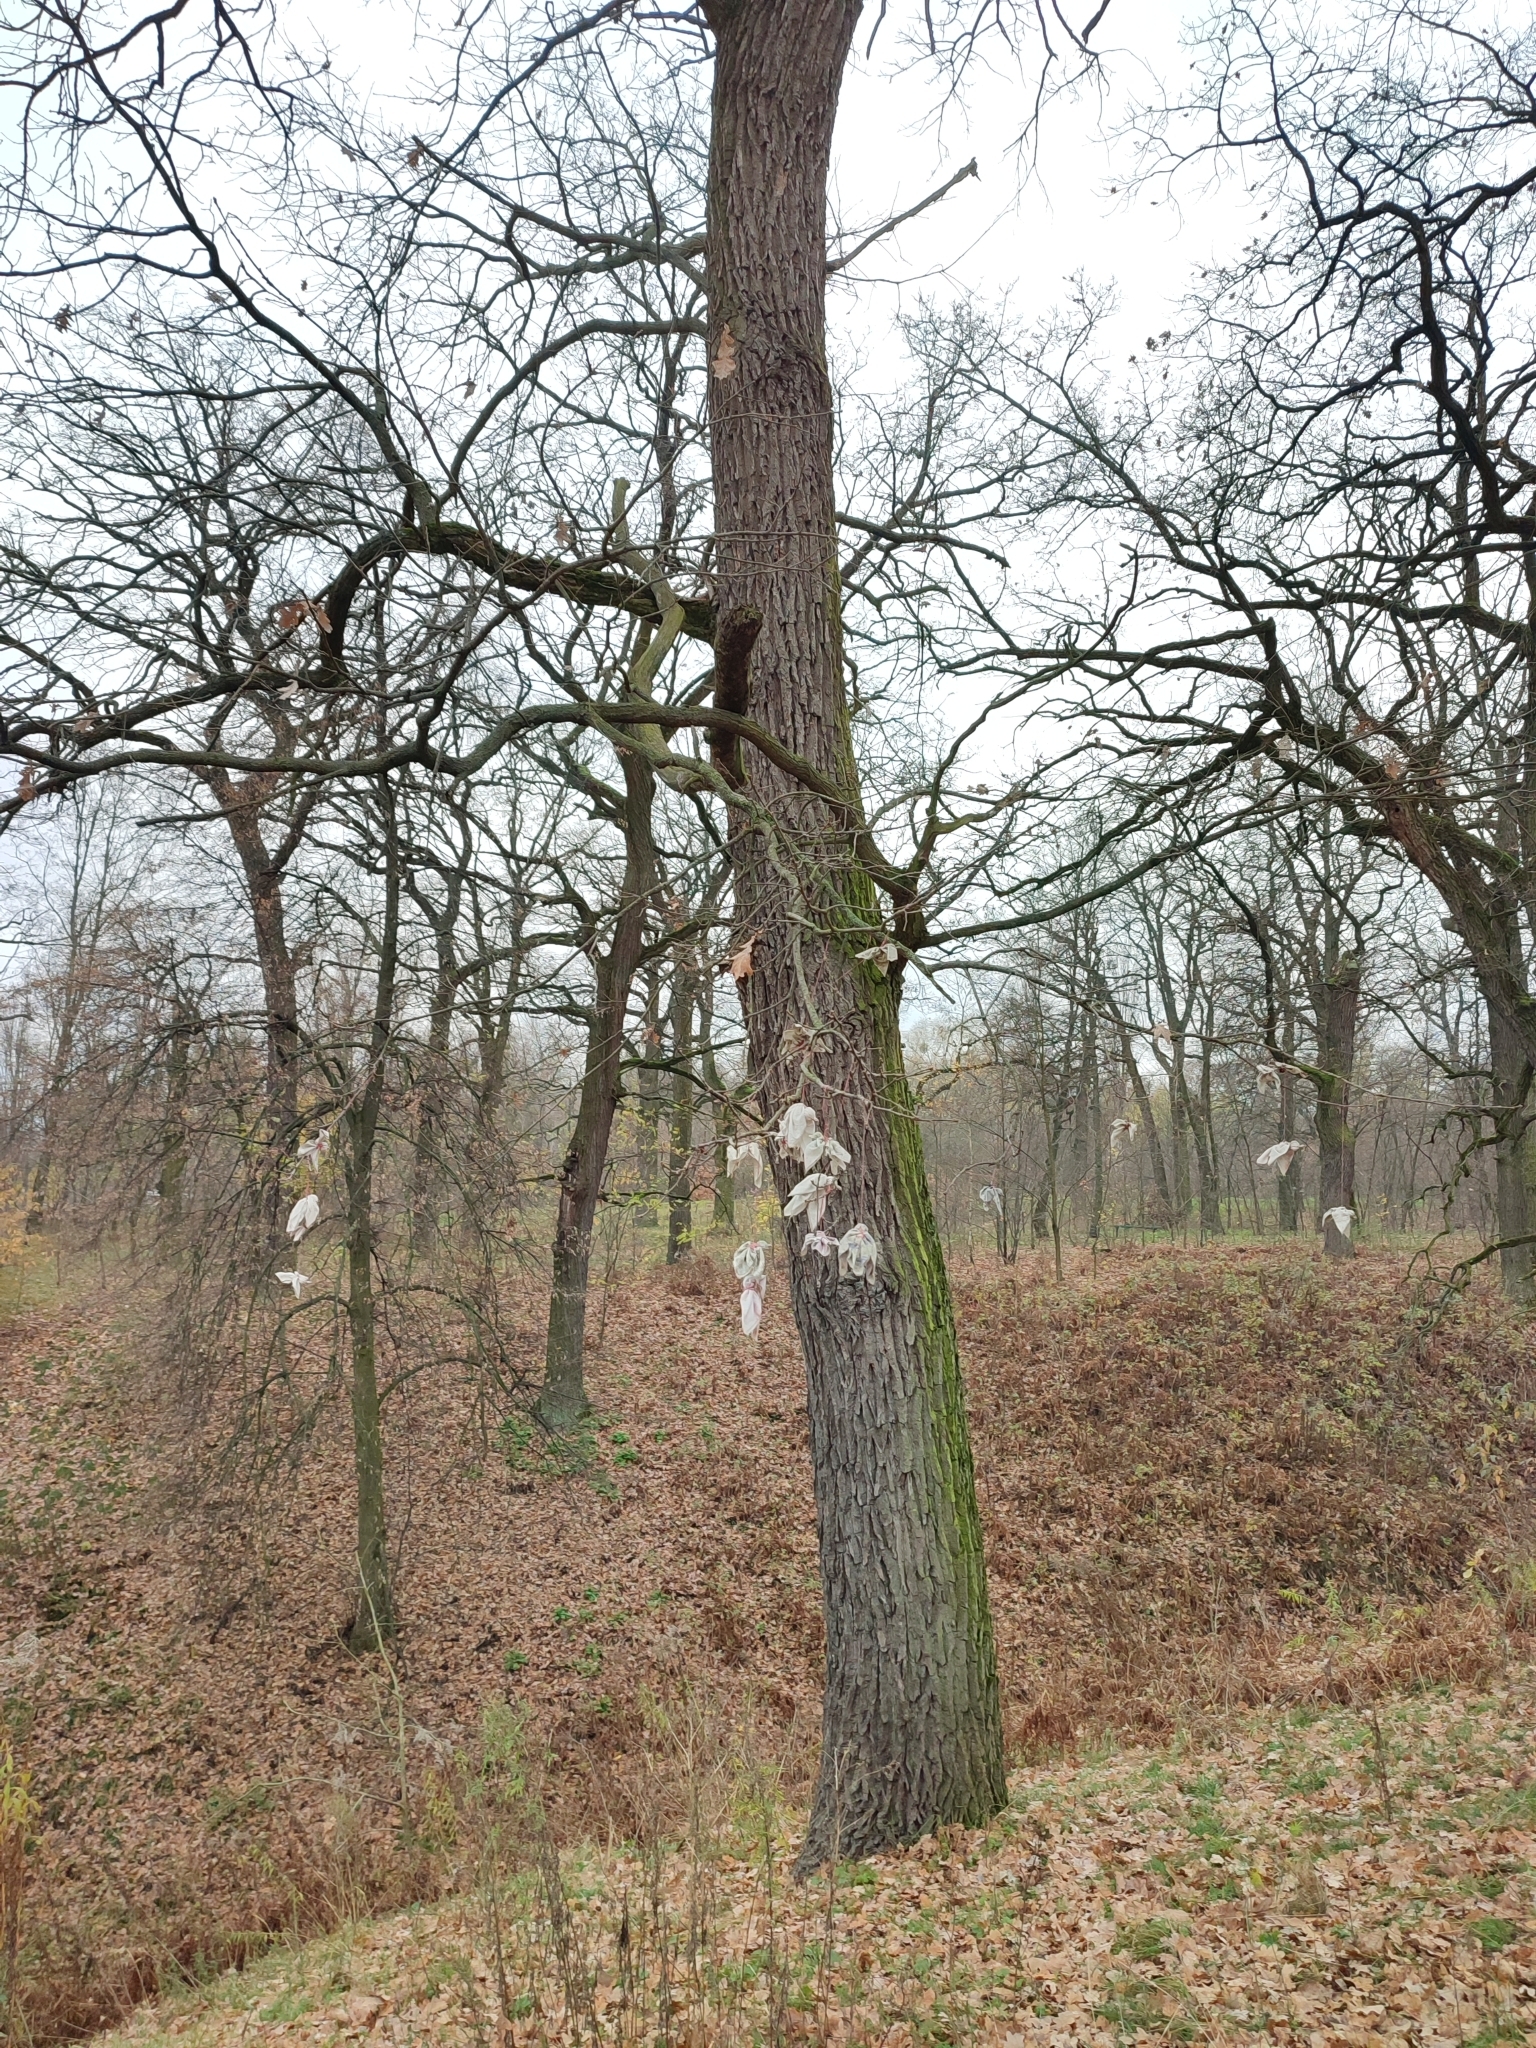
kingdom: Plantae
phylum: Tracheophyta
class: Magnoliopsida
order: Fagales
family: Fagaceae
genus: Quercus
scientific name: Quercus robur
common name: Pedunculate oak
